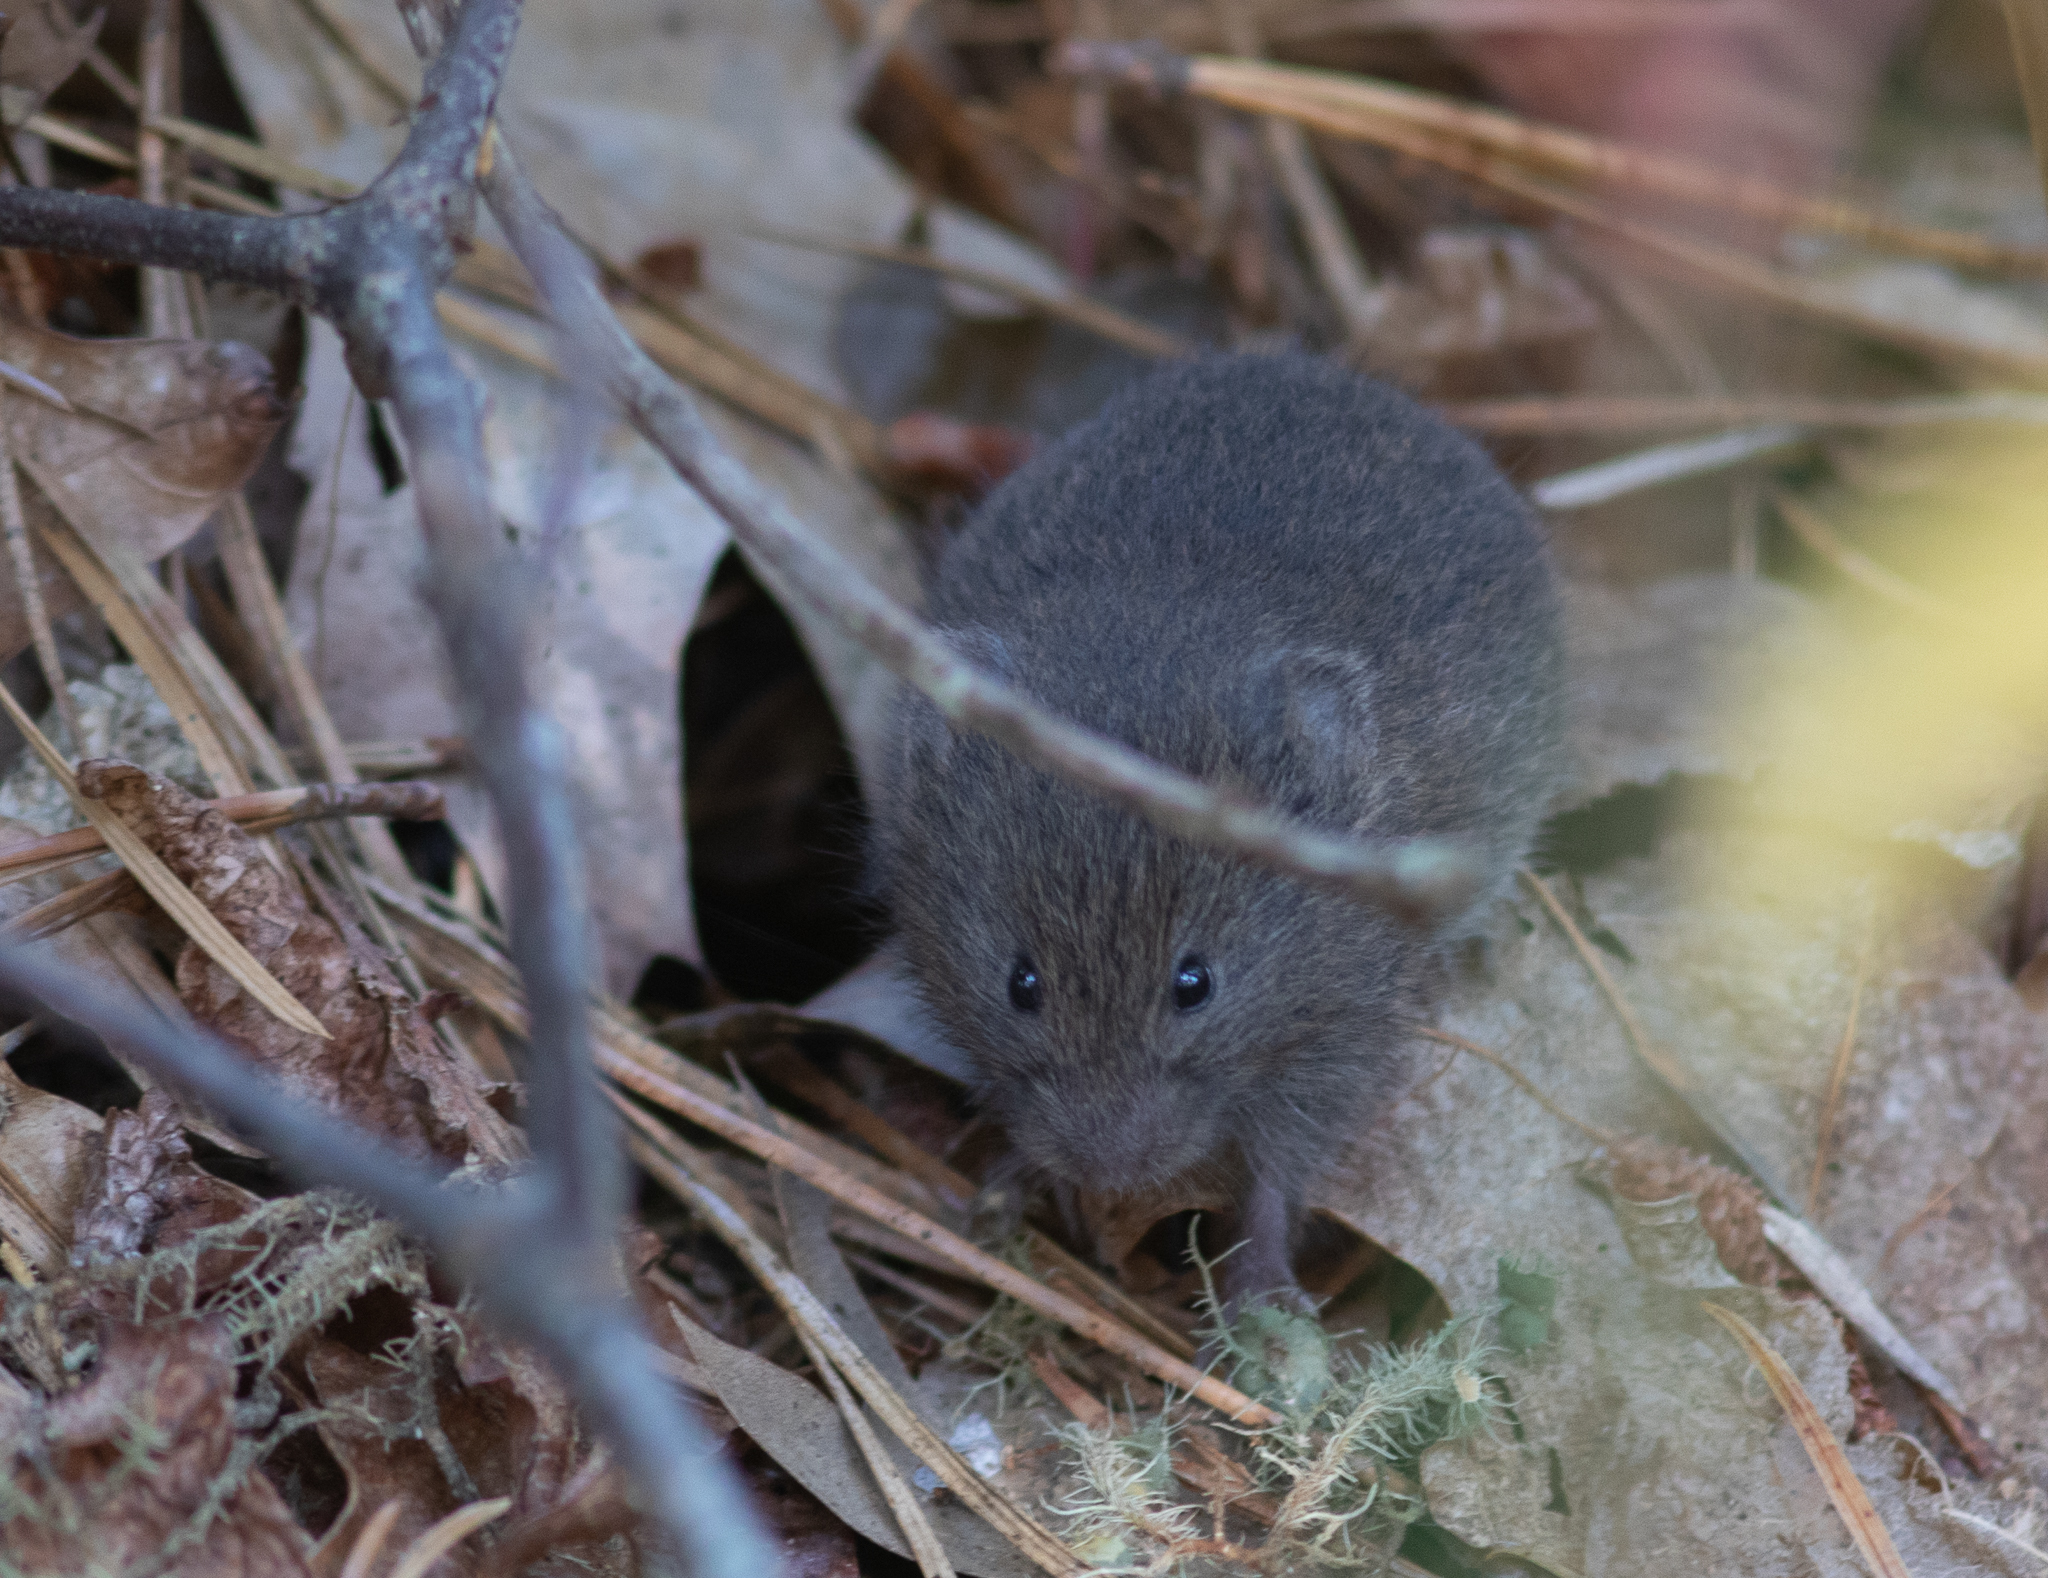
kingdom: Animalia
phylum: Chordata
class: Mammalia
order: Rodentia
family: Cricetidae
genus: Microtus
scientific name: Microtus pennsylvanicus
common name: Meadow vole
